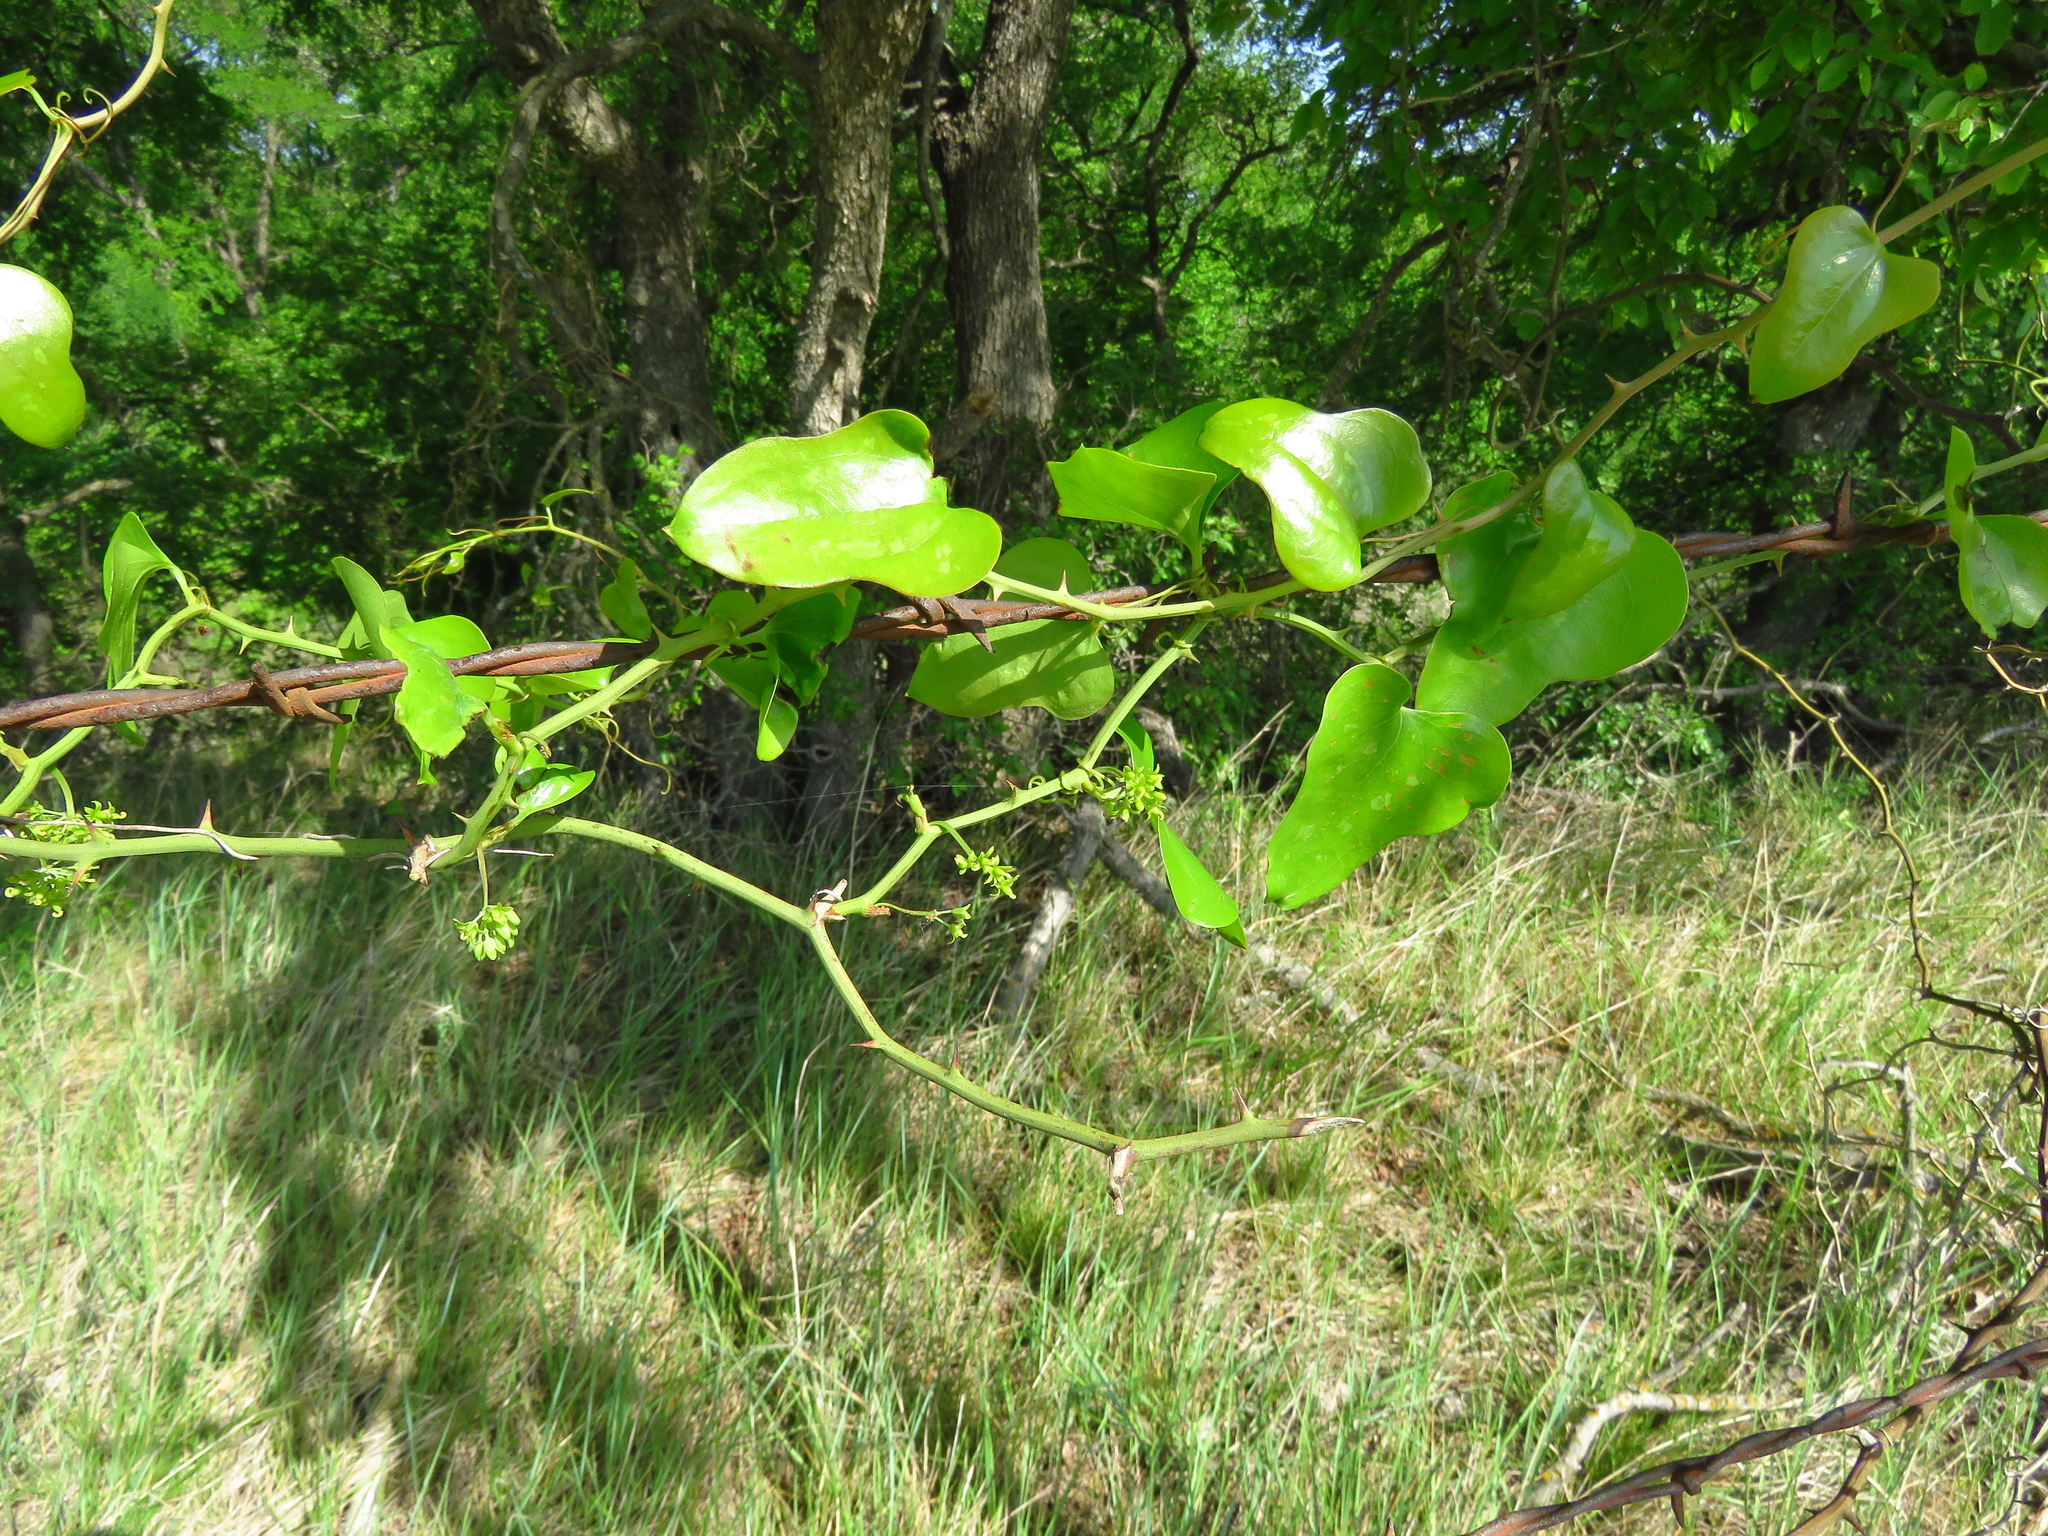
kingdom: Plantae
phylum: Tracheophyta
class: Liliopsida
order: Liliales
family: Smilacaceae
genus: Smilax
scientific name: Smilax bona-nox
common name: Catbrier
